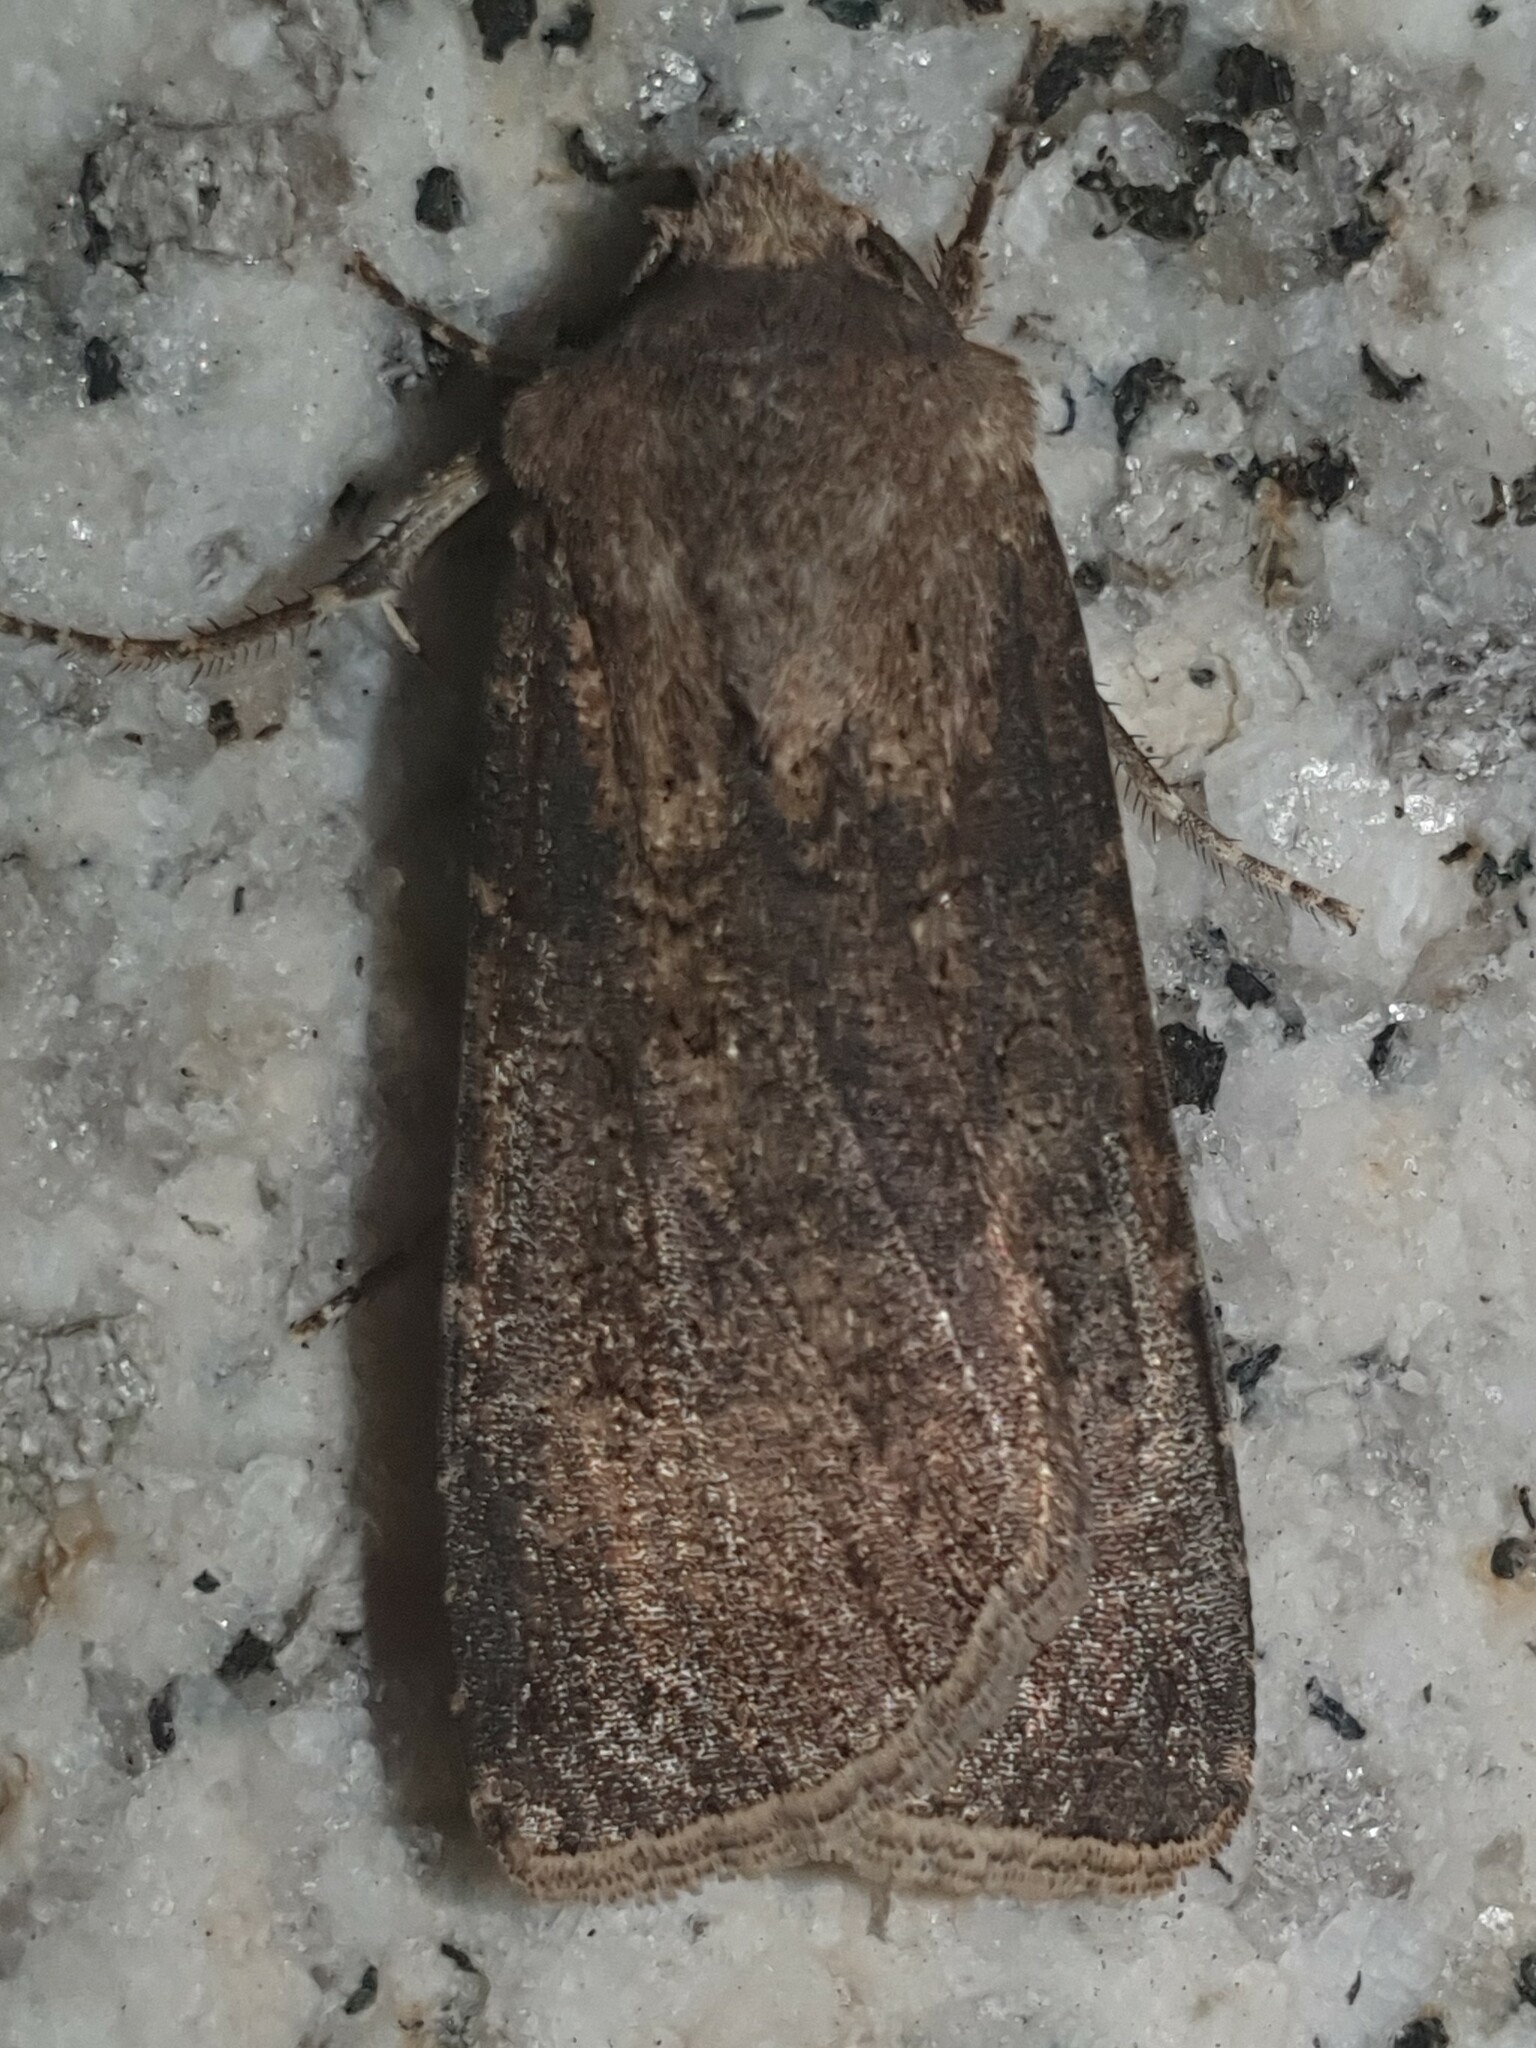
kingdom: Animalia
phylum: Arthropoda
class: Insecta
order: Lepidoptera
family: Noctuidae
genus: Agrotis
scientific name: Agrotis segetum
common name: Turnip moth
